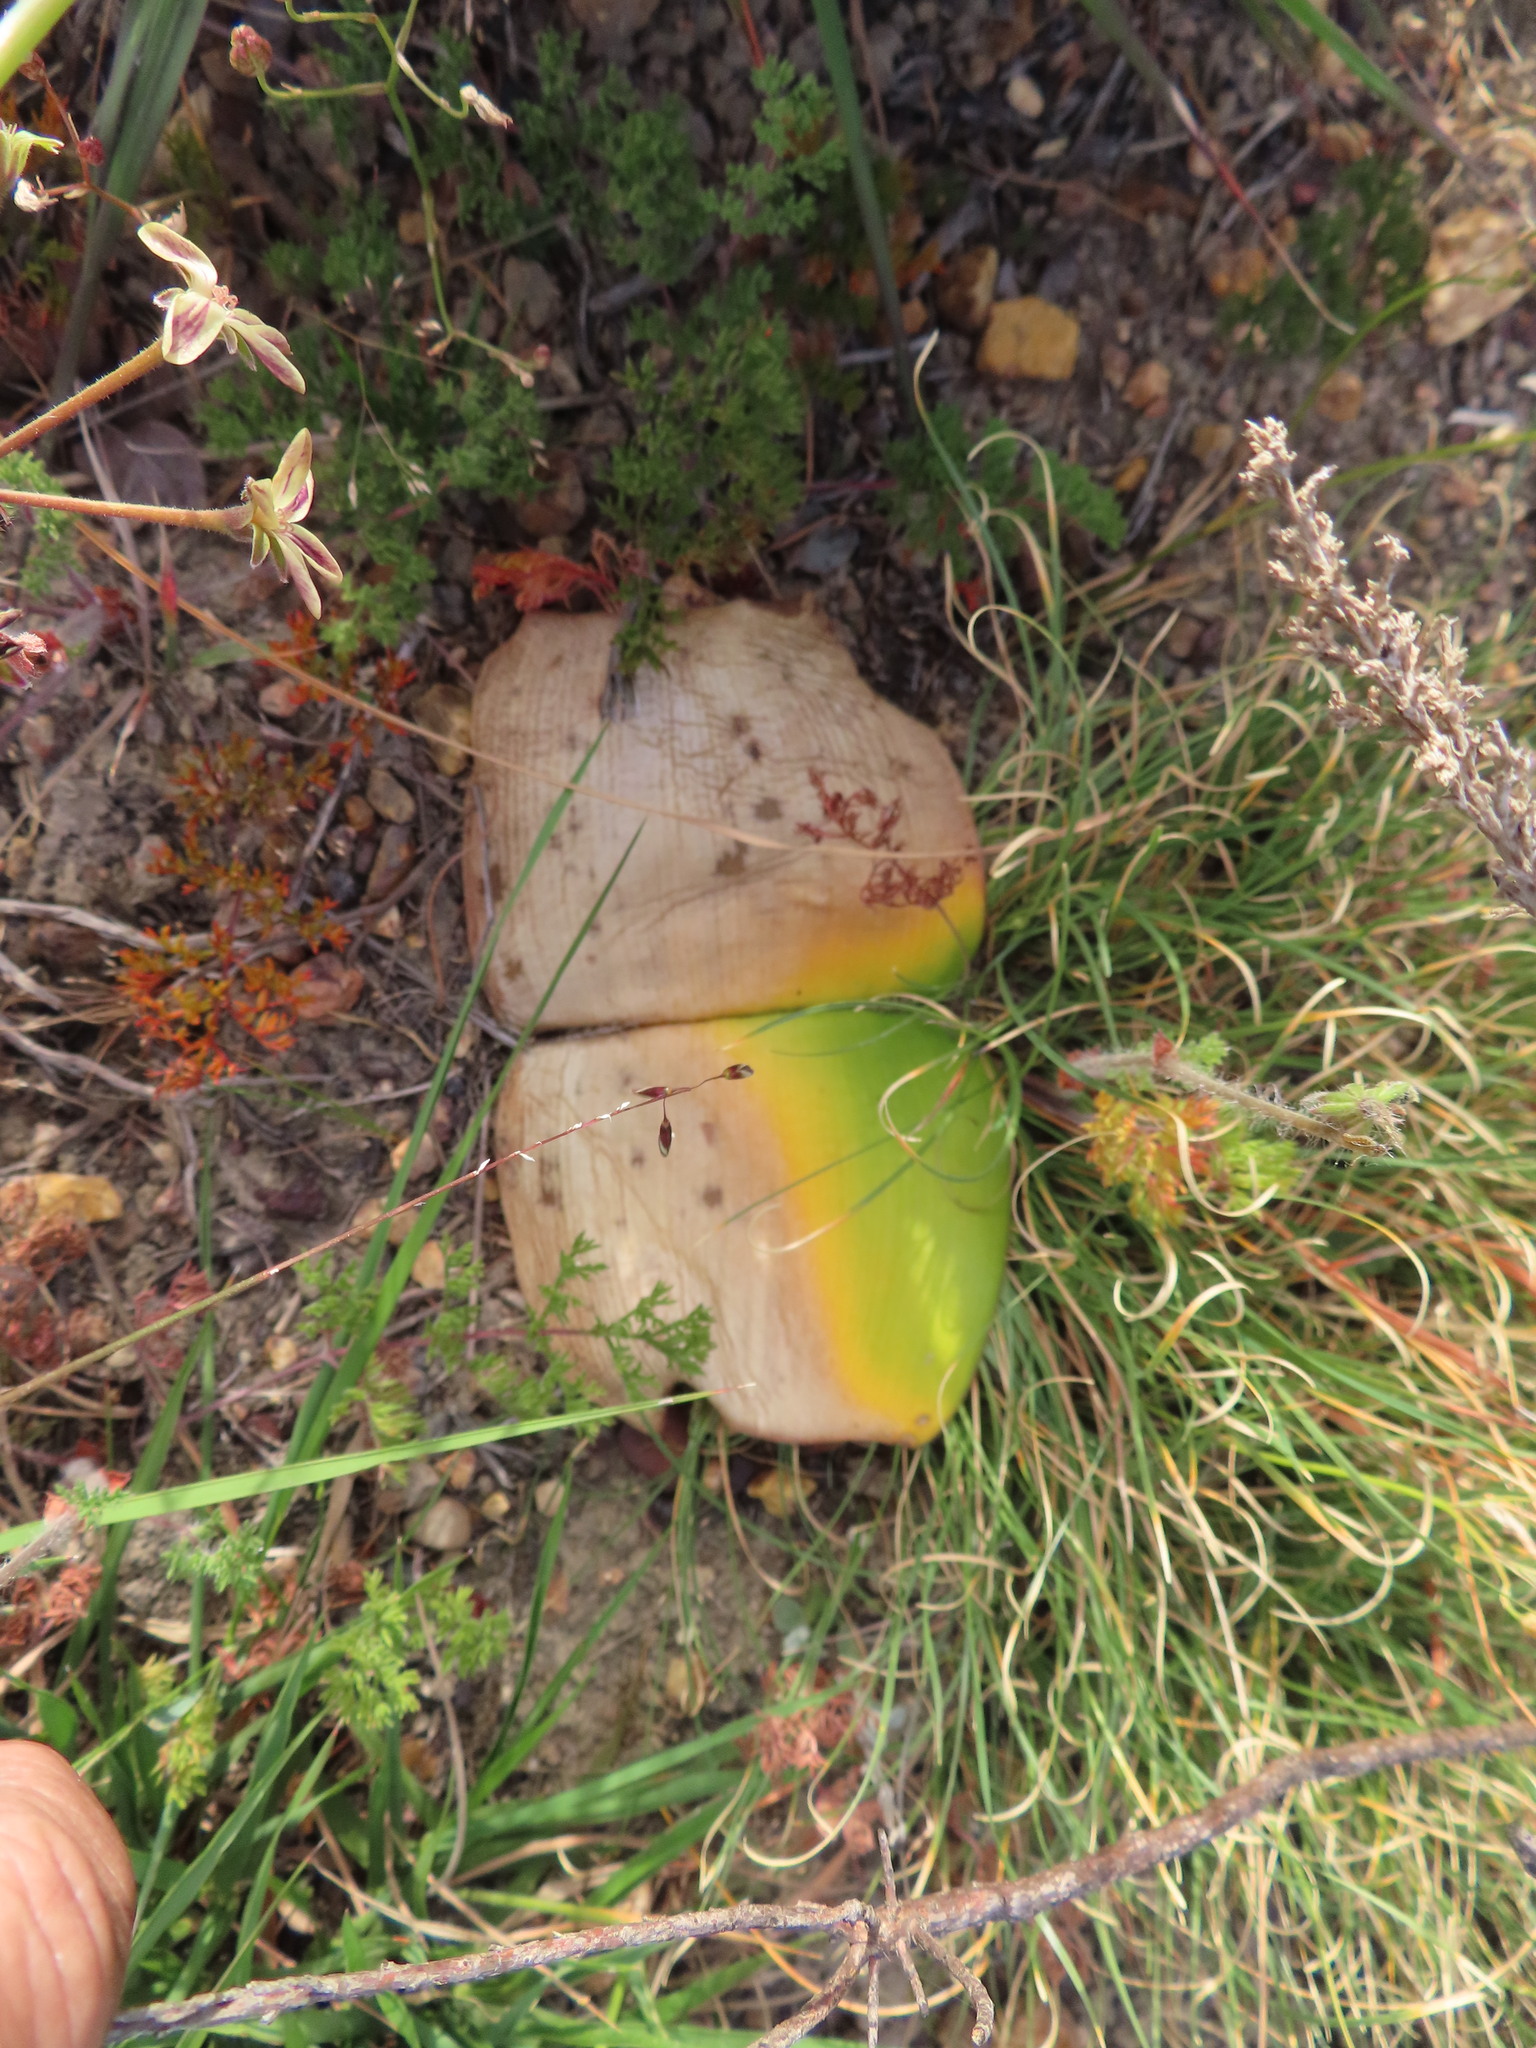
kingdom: Plantae
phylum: Tracheophyta
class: Liliopsida
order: Asparagales
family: Amaryllidaceae
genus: Haemanthus
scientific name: Haemanthus sanguineus
